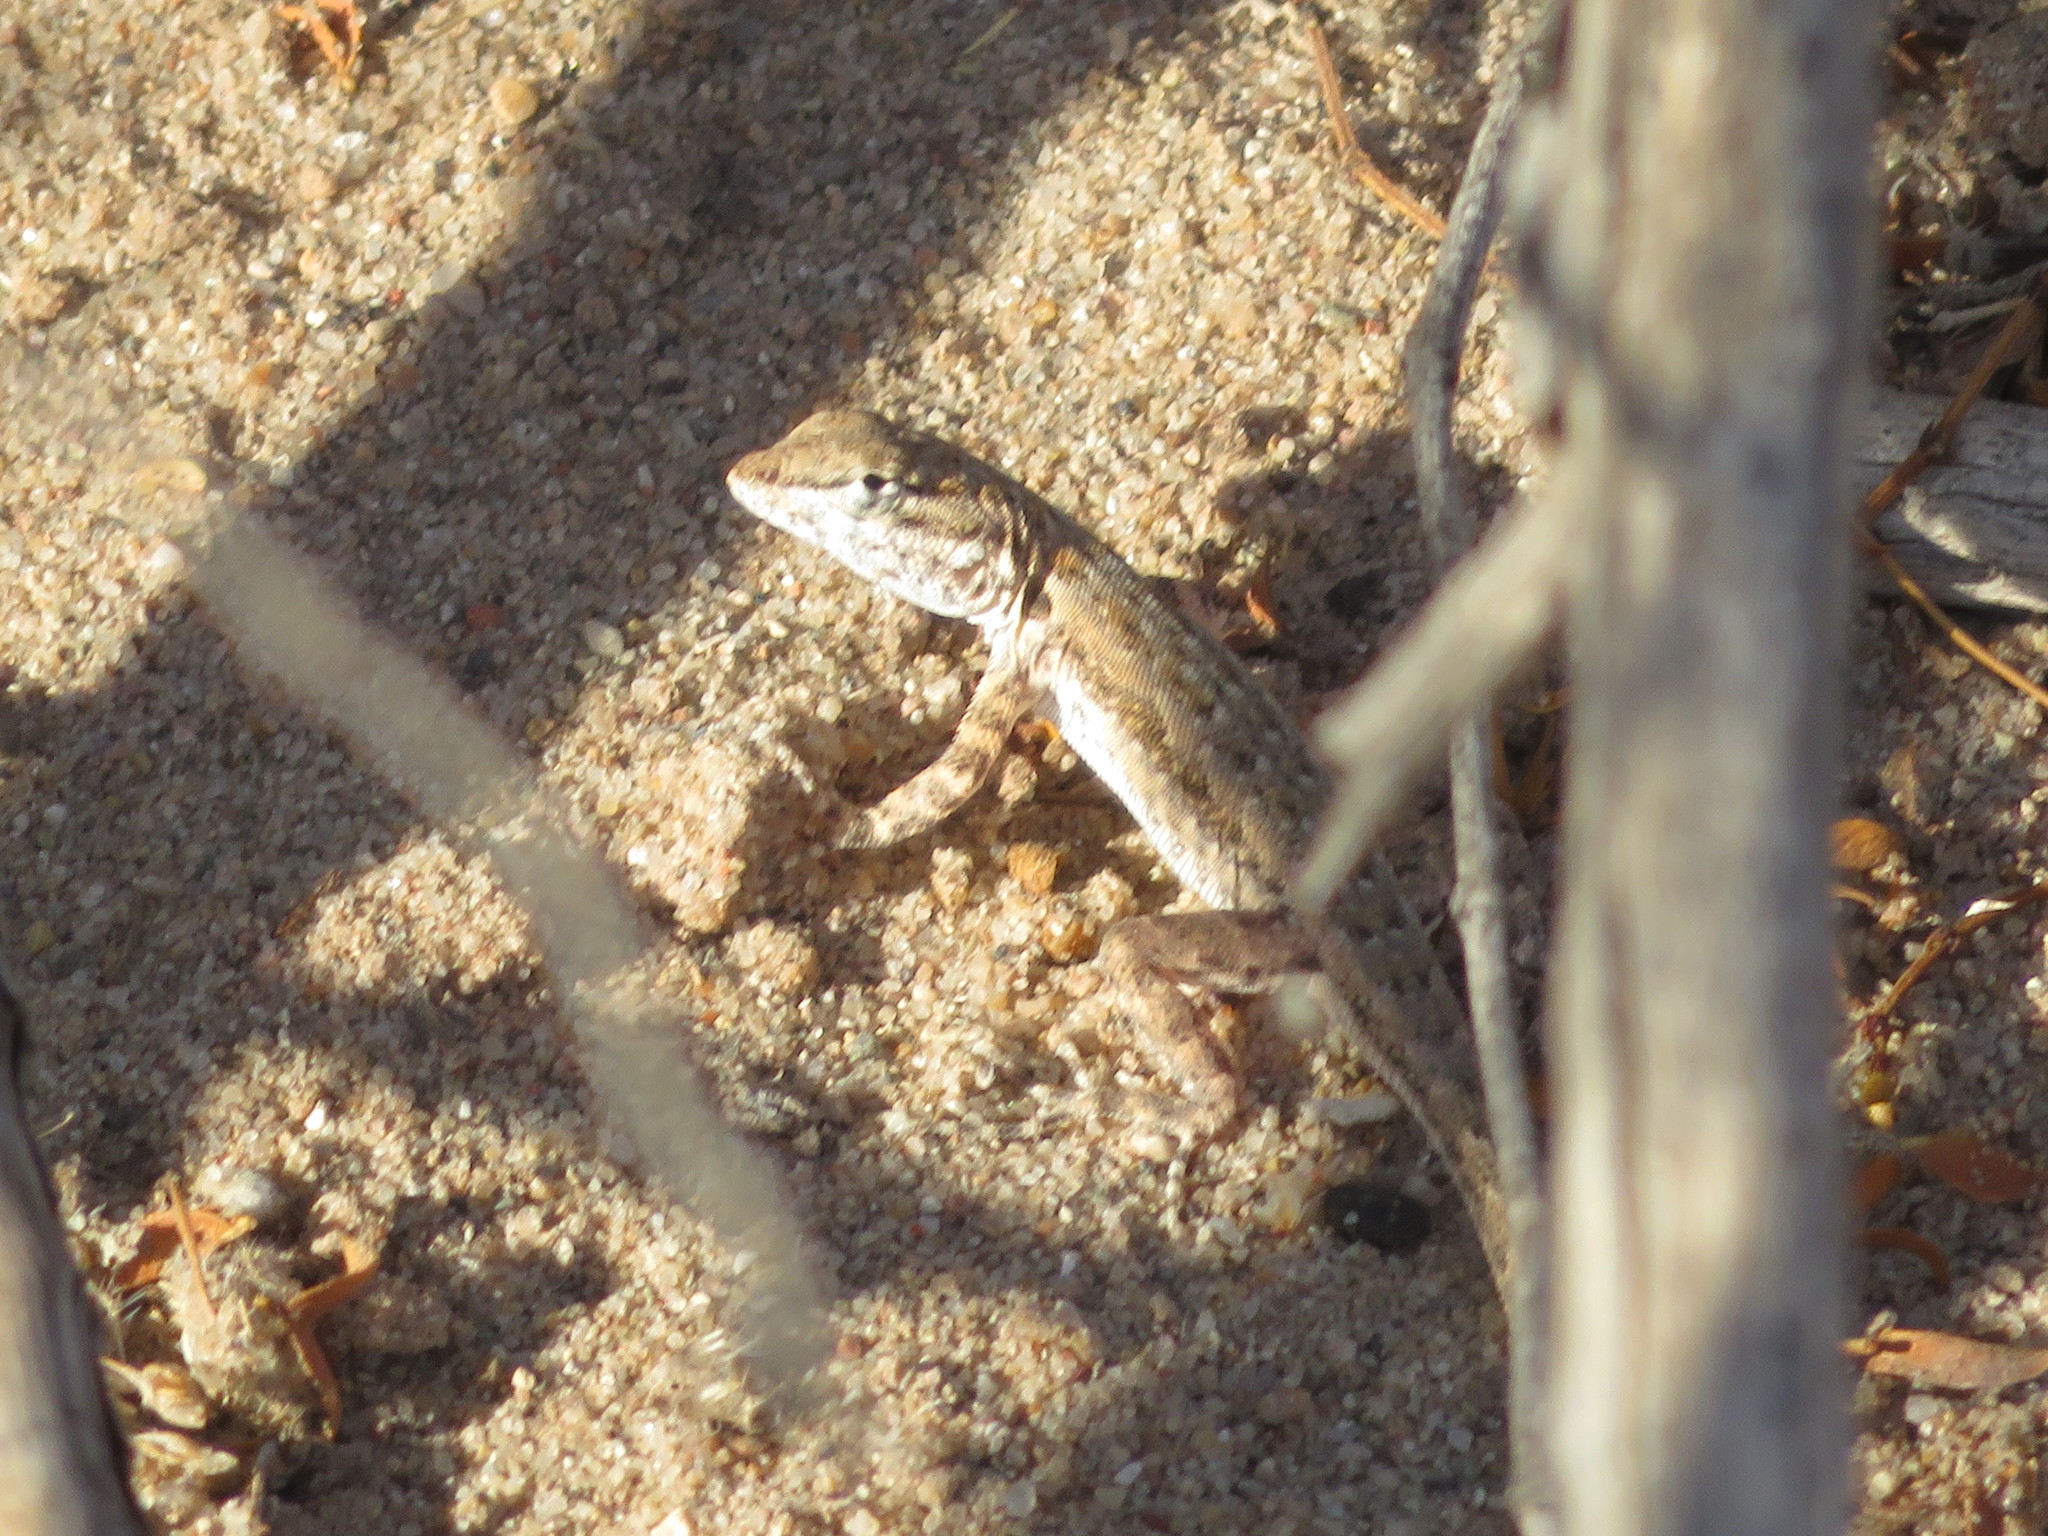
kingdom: Animalia
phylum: Chordata
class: Squamata
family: Phrynosomatidae
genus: Uta
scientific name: Uta stansburiana
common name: Side-blotched lizard
